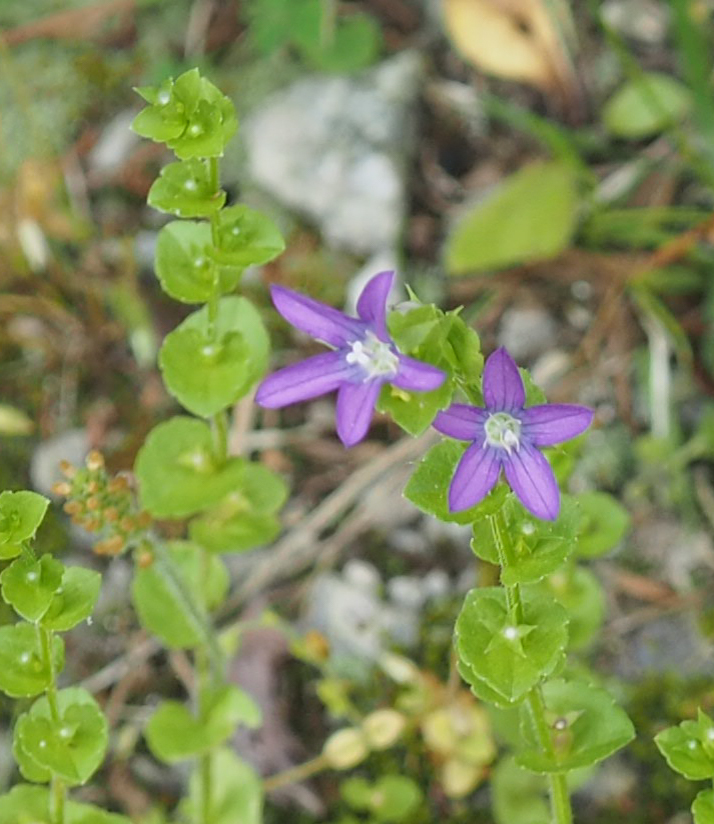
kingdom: Plantae
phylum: Tracheophyta
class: Magnoliopsida
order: Asterales
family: Campanulaceae
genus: Triodanis
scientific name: Triodanis perfoliata
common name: Clasping venus' looking-glass
